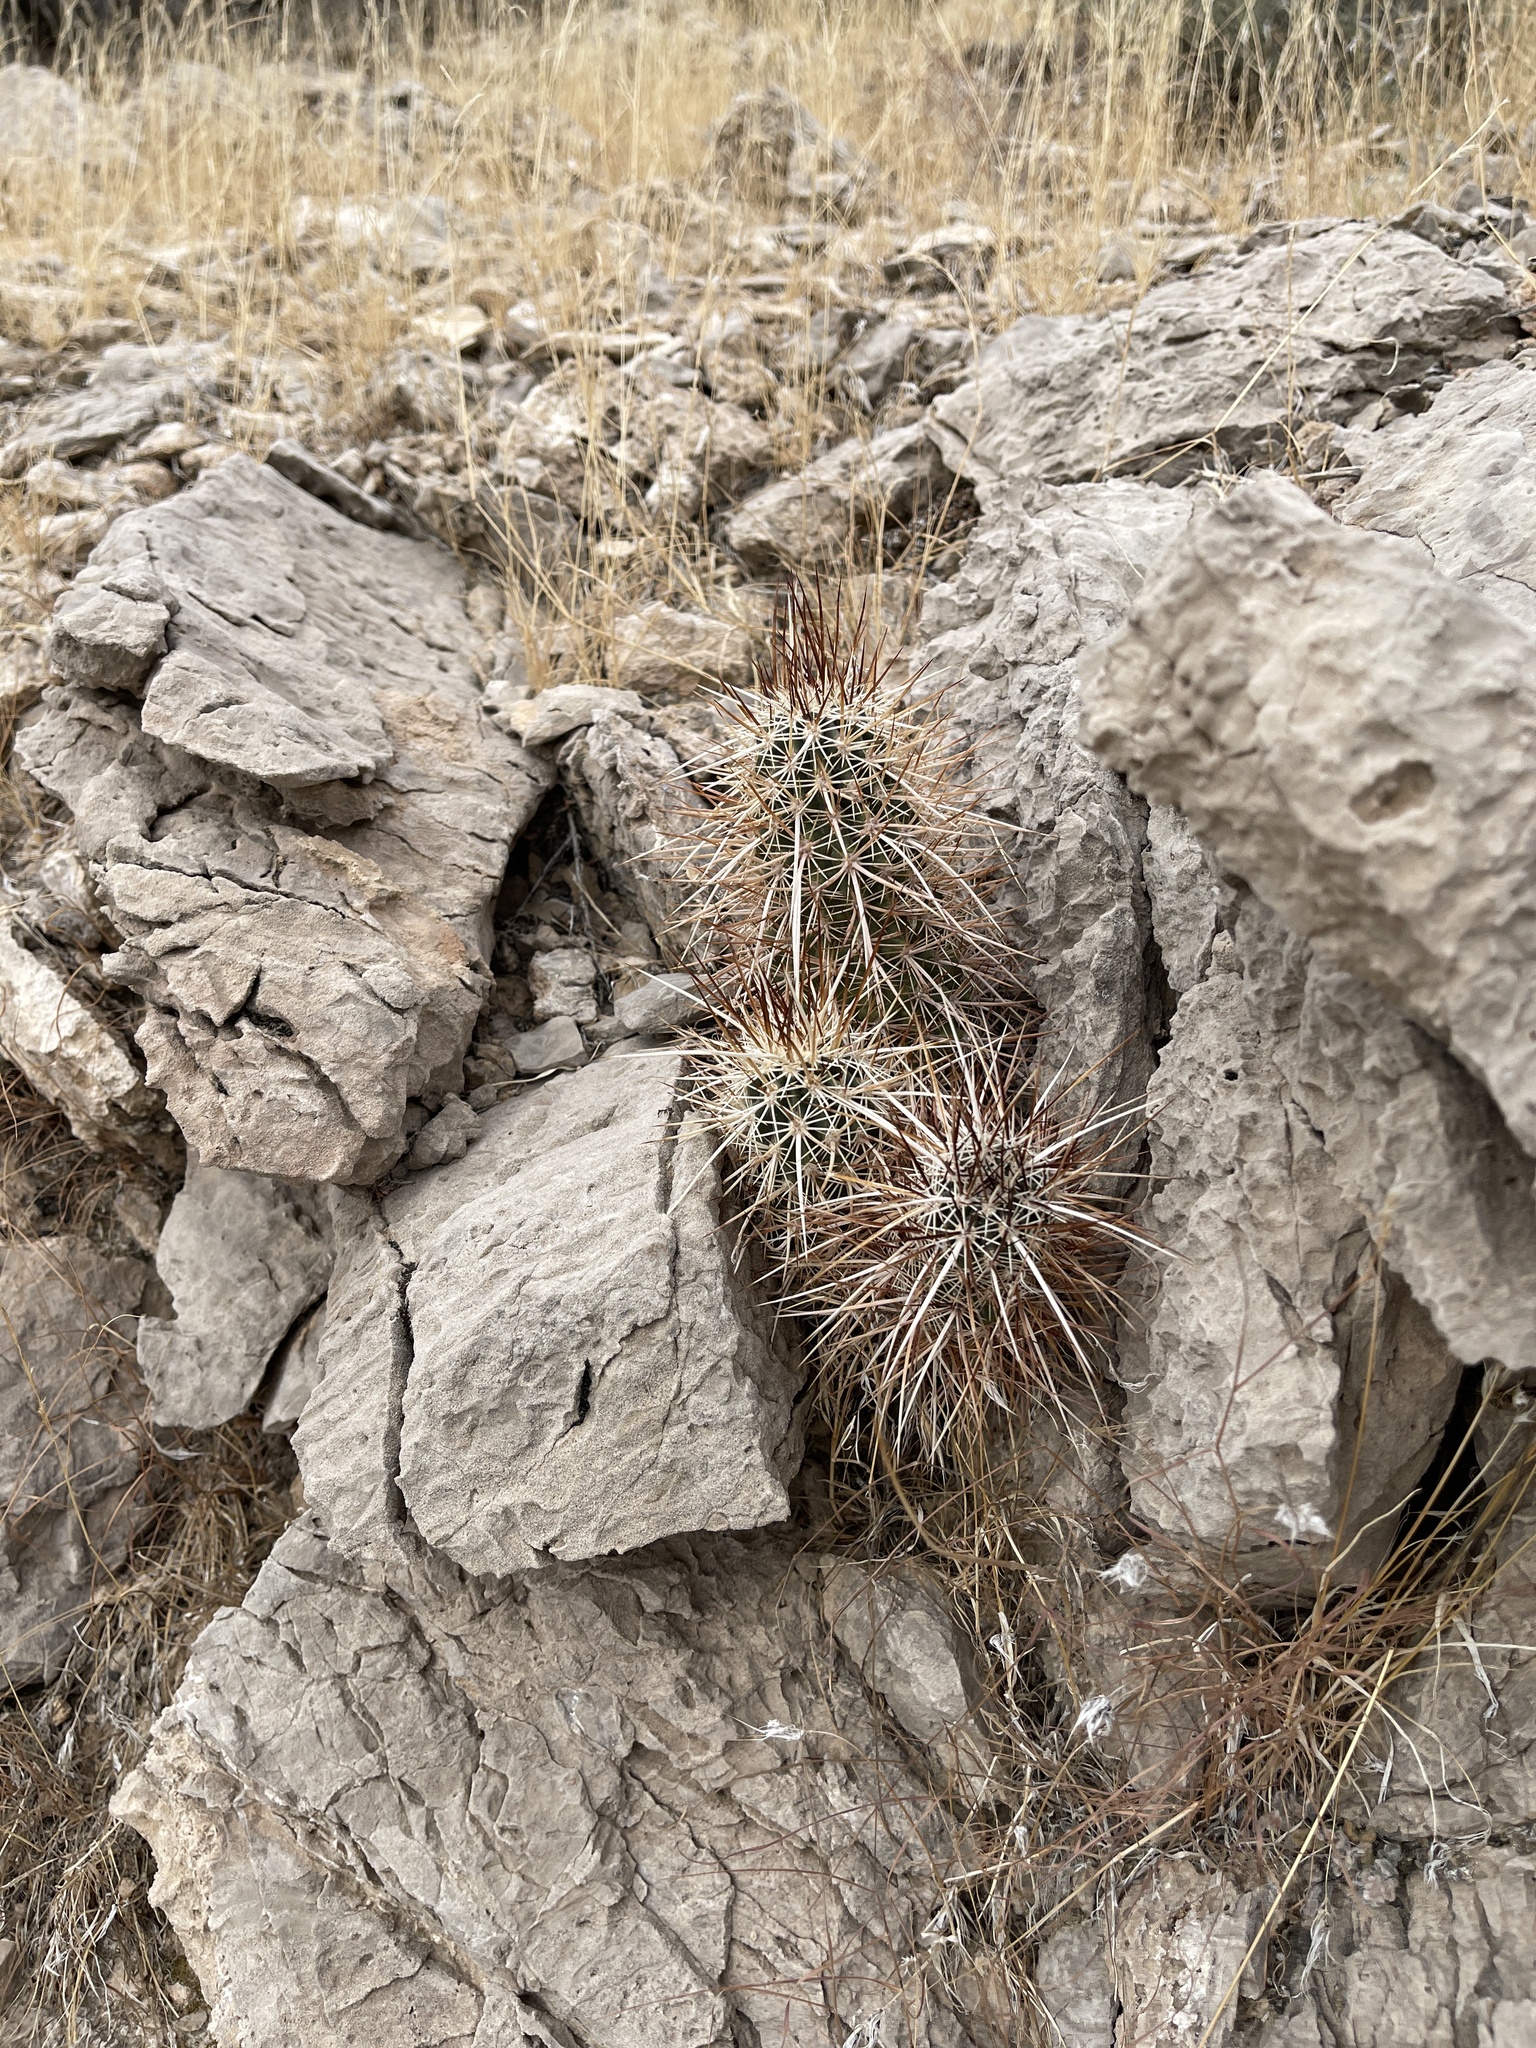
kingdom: Plantae
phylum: Tracheophyta
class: Magnoliopsida
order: Caryophyllales
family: Cactaceae
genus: Echinocereus
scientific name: Echinocereus engelmannii
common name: Engelmann's hedgehog cactus
